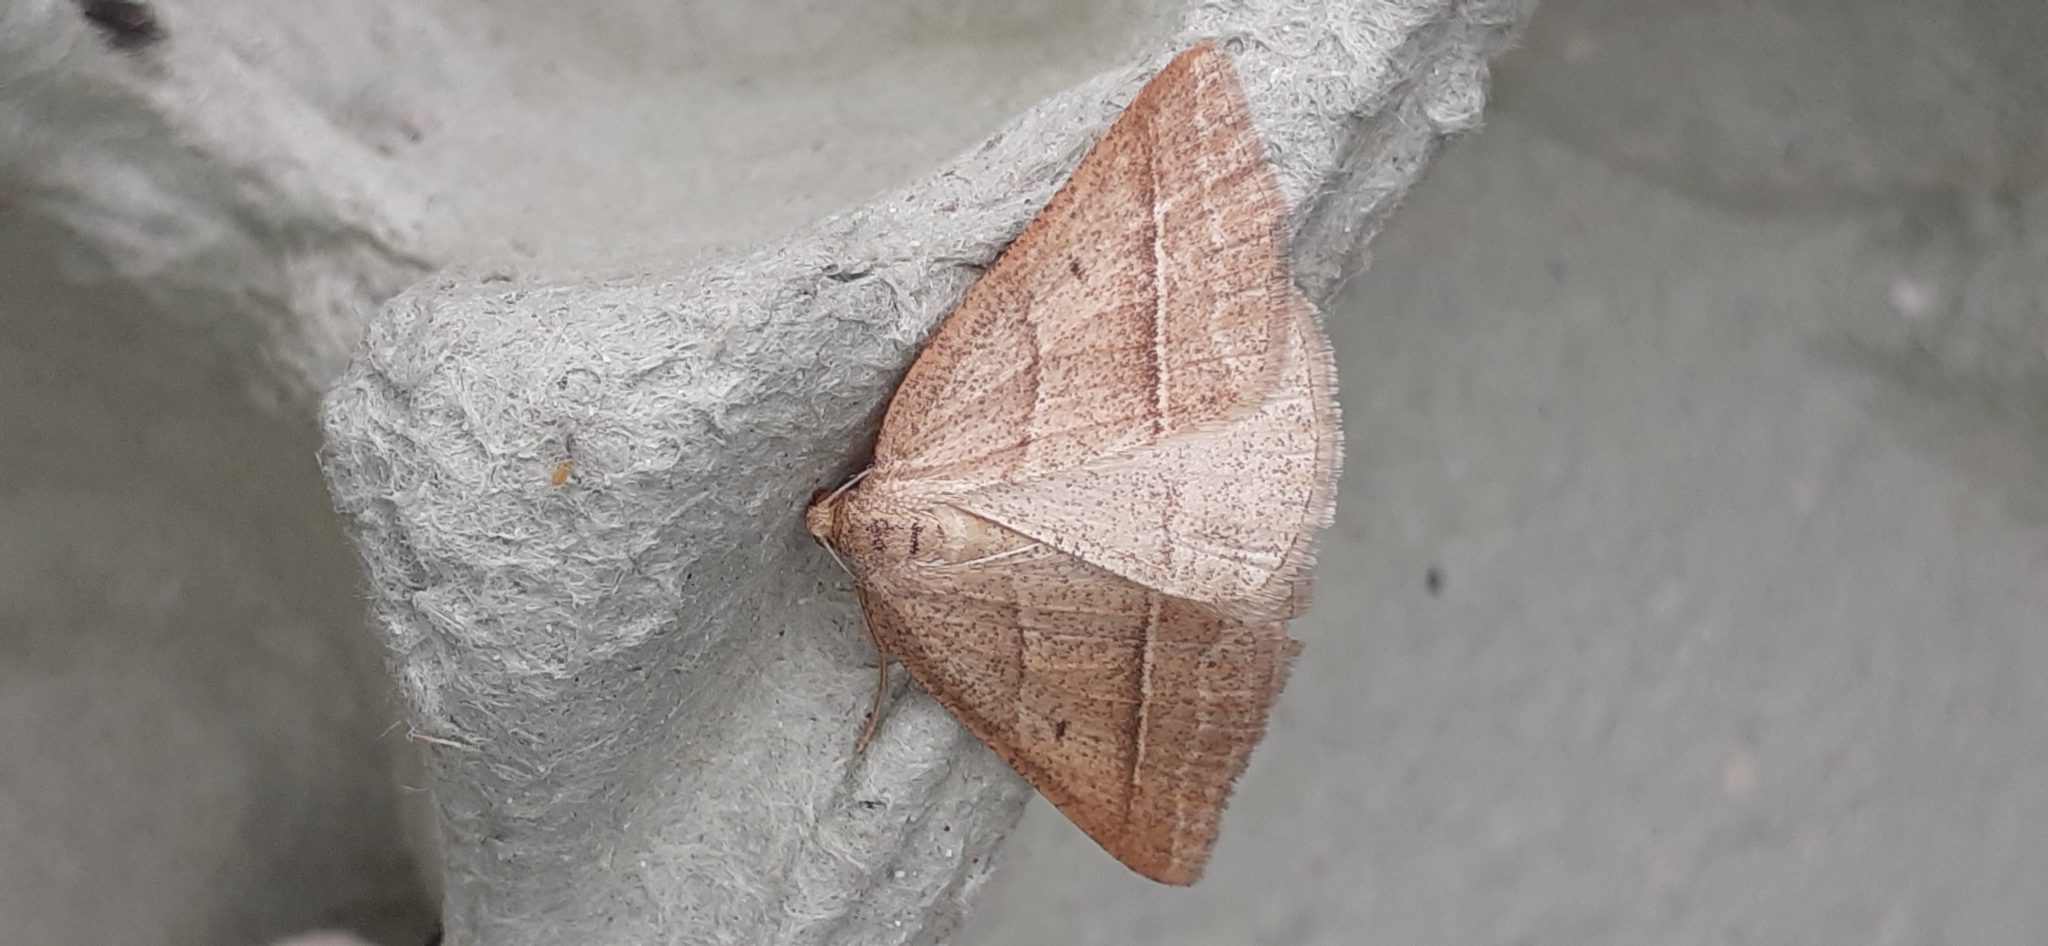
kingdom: Animalia
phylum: Arthropoda
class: Insecta
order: Lepidoptera
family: Pterophoridae
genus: Pterophorus
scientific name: Pterophorus Petrophora chlorosata
